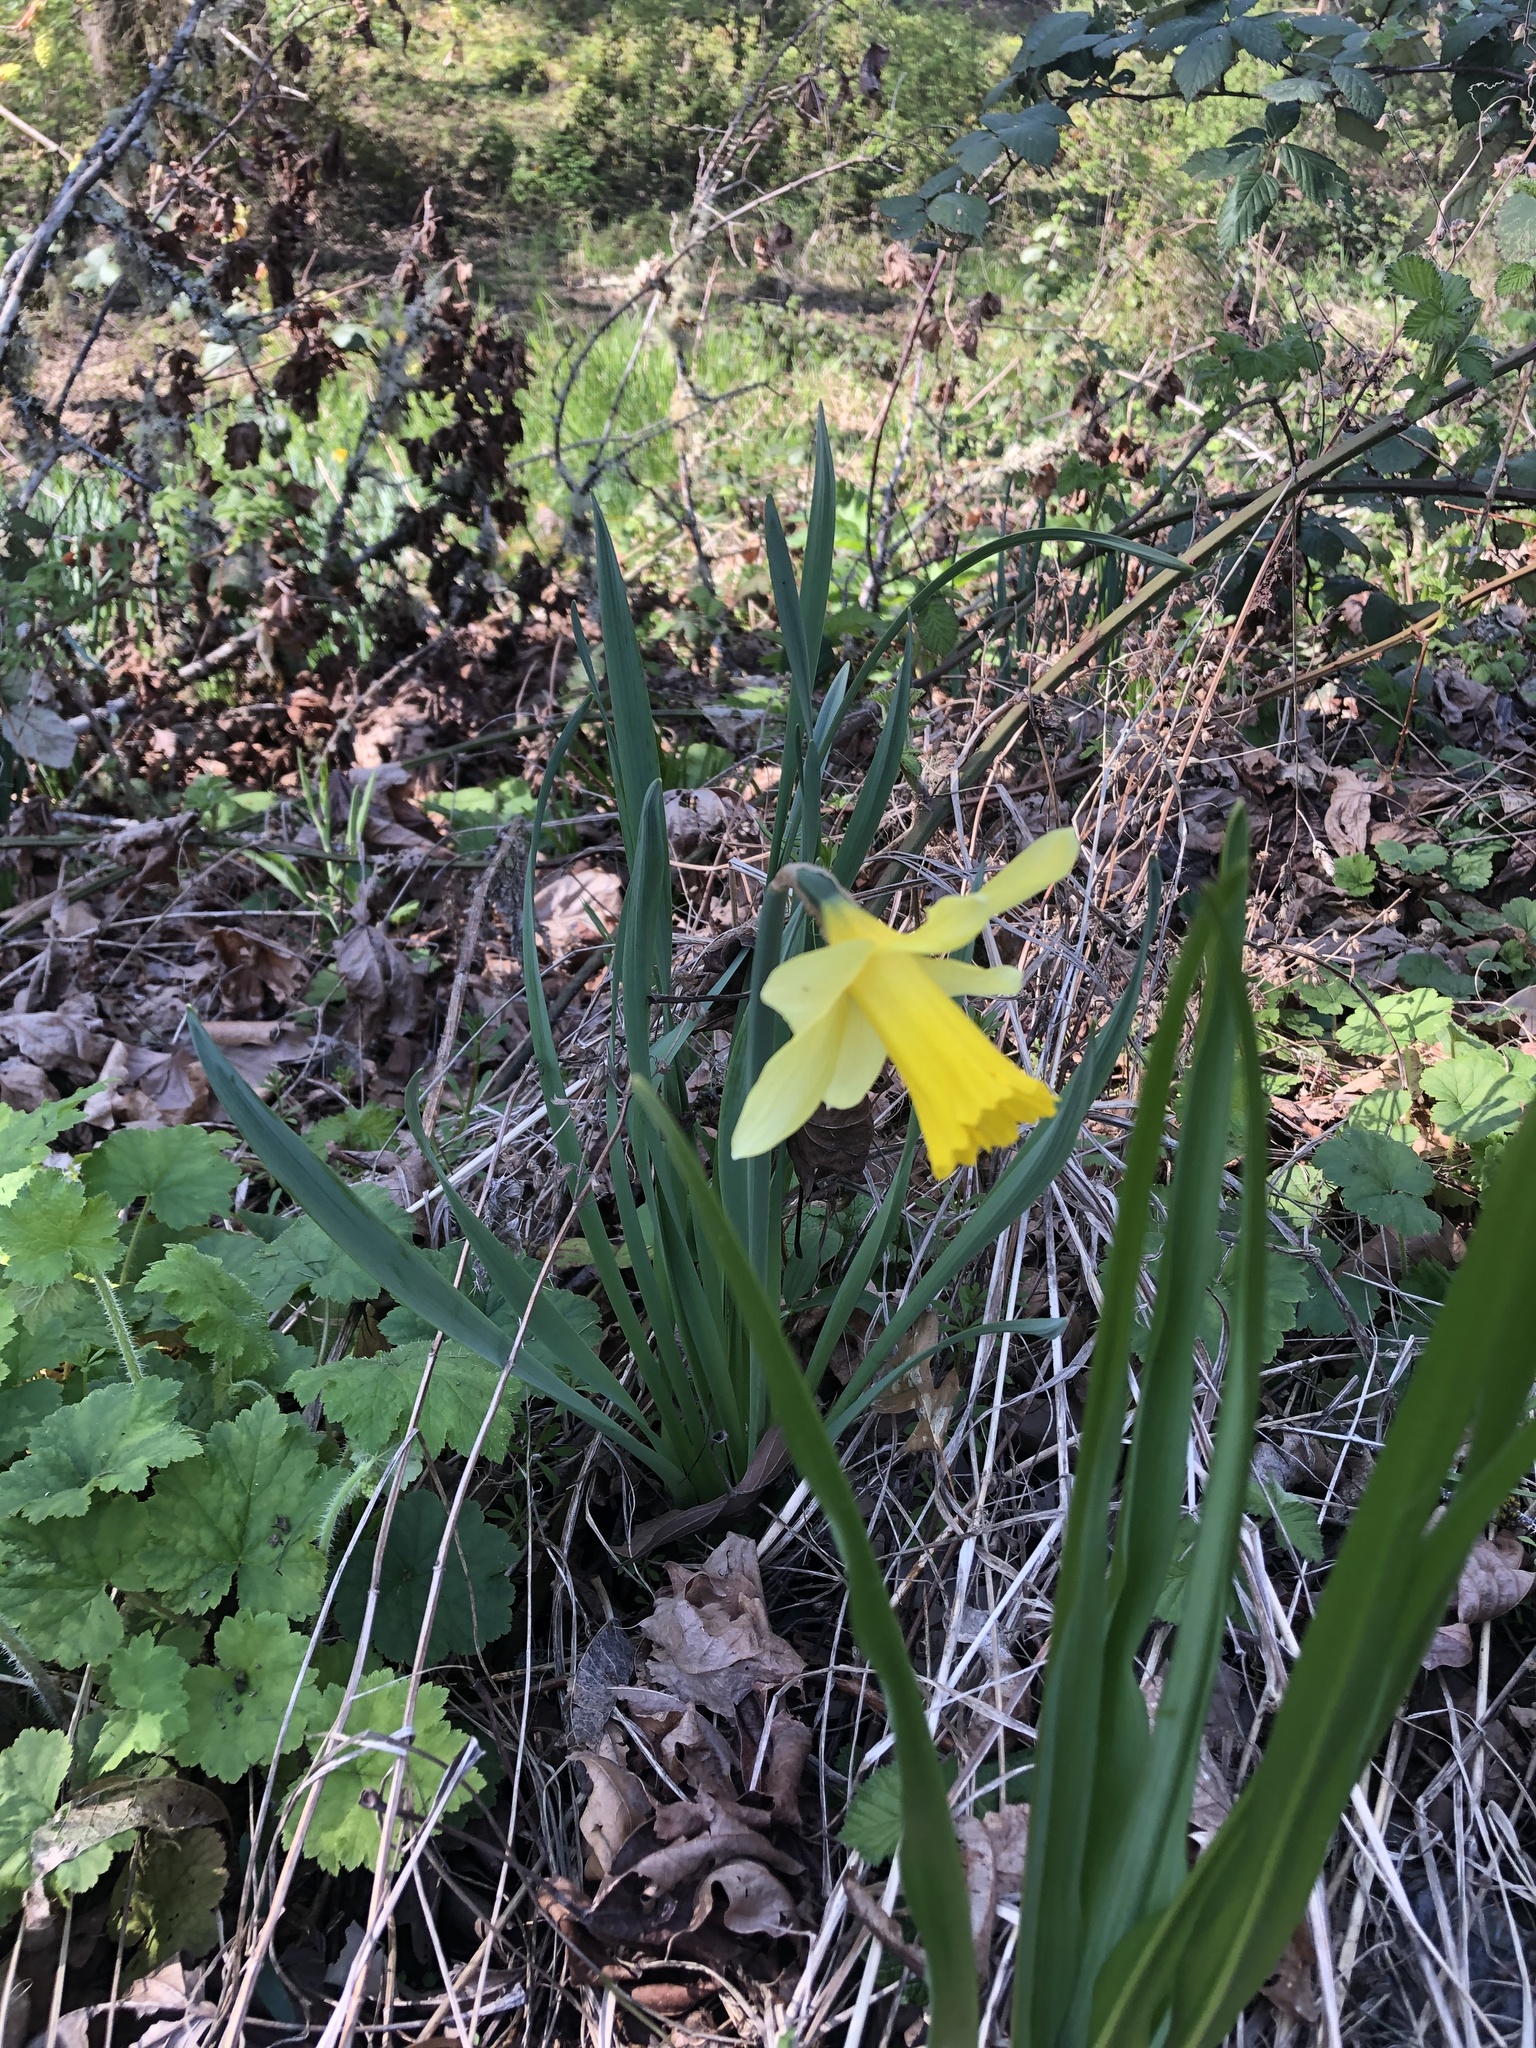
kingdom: Plantae
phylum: Tracheophyta
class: Liliopsida
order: Asparagales
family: Amaryllidaceae
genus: Narcissus
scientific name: Narcissus pseudonarcissus
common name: Daffodil
